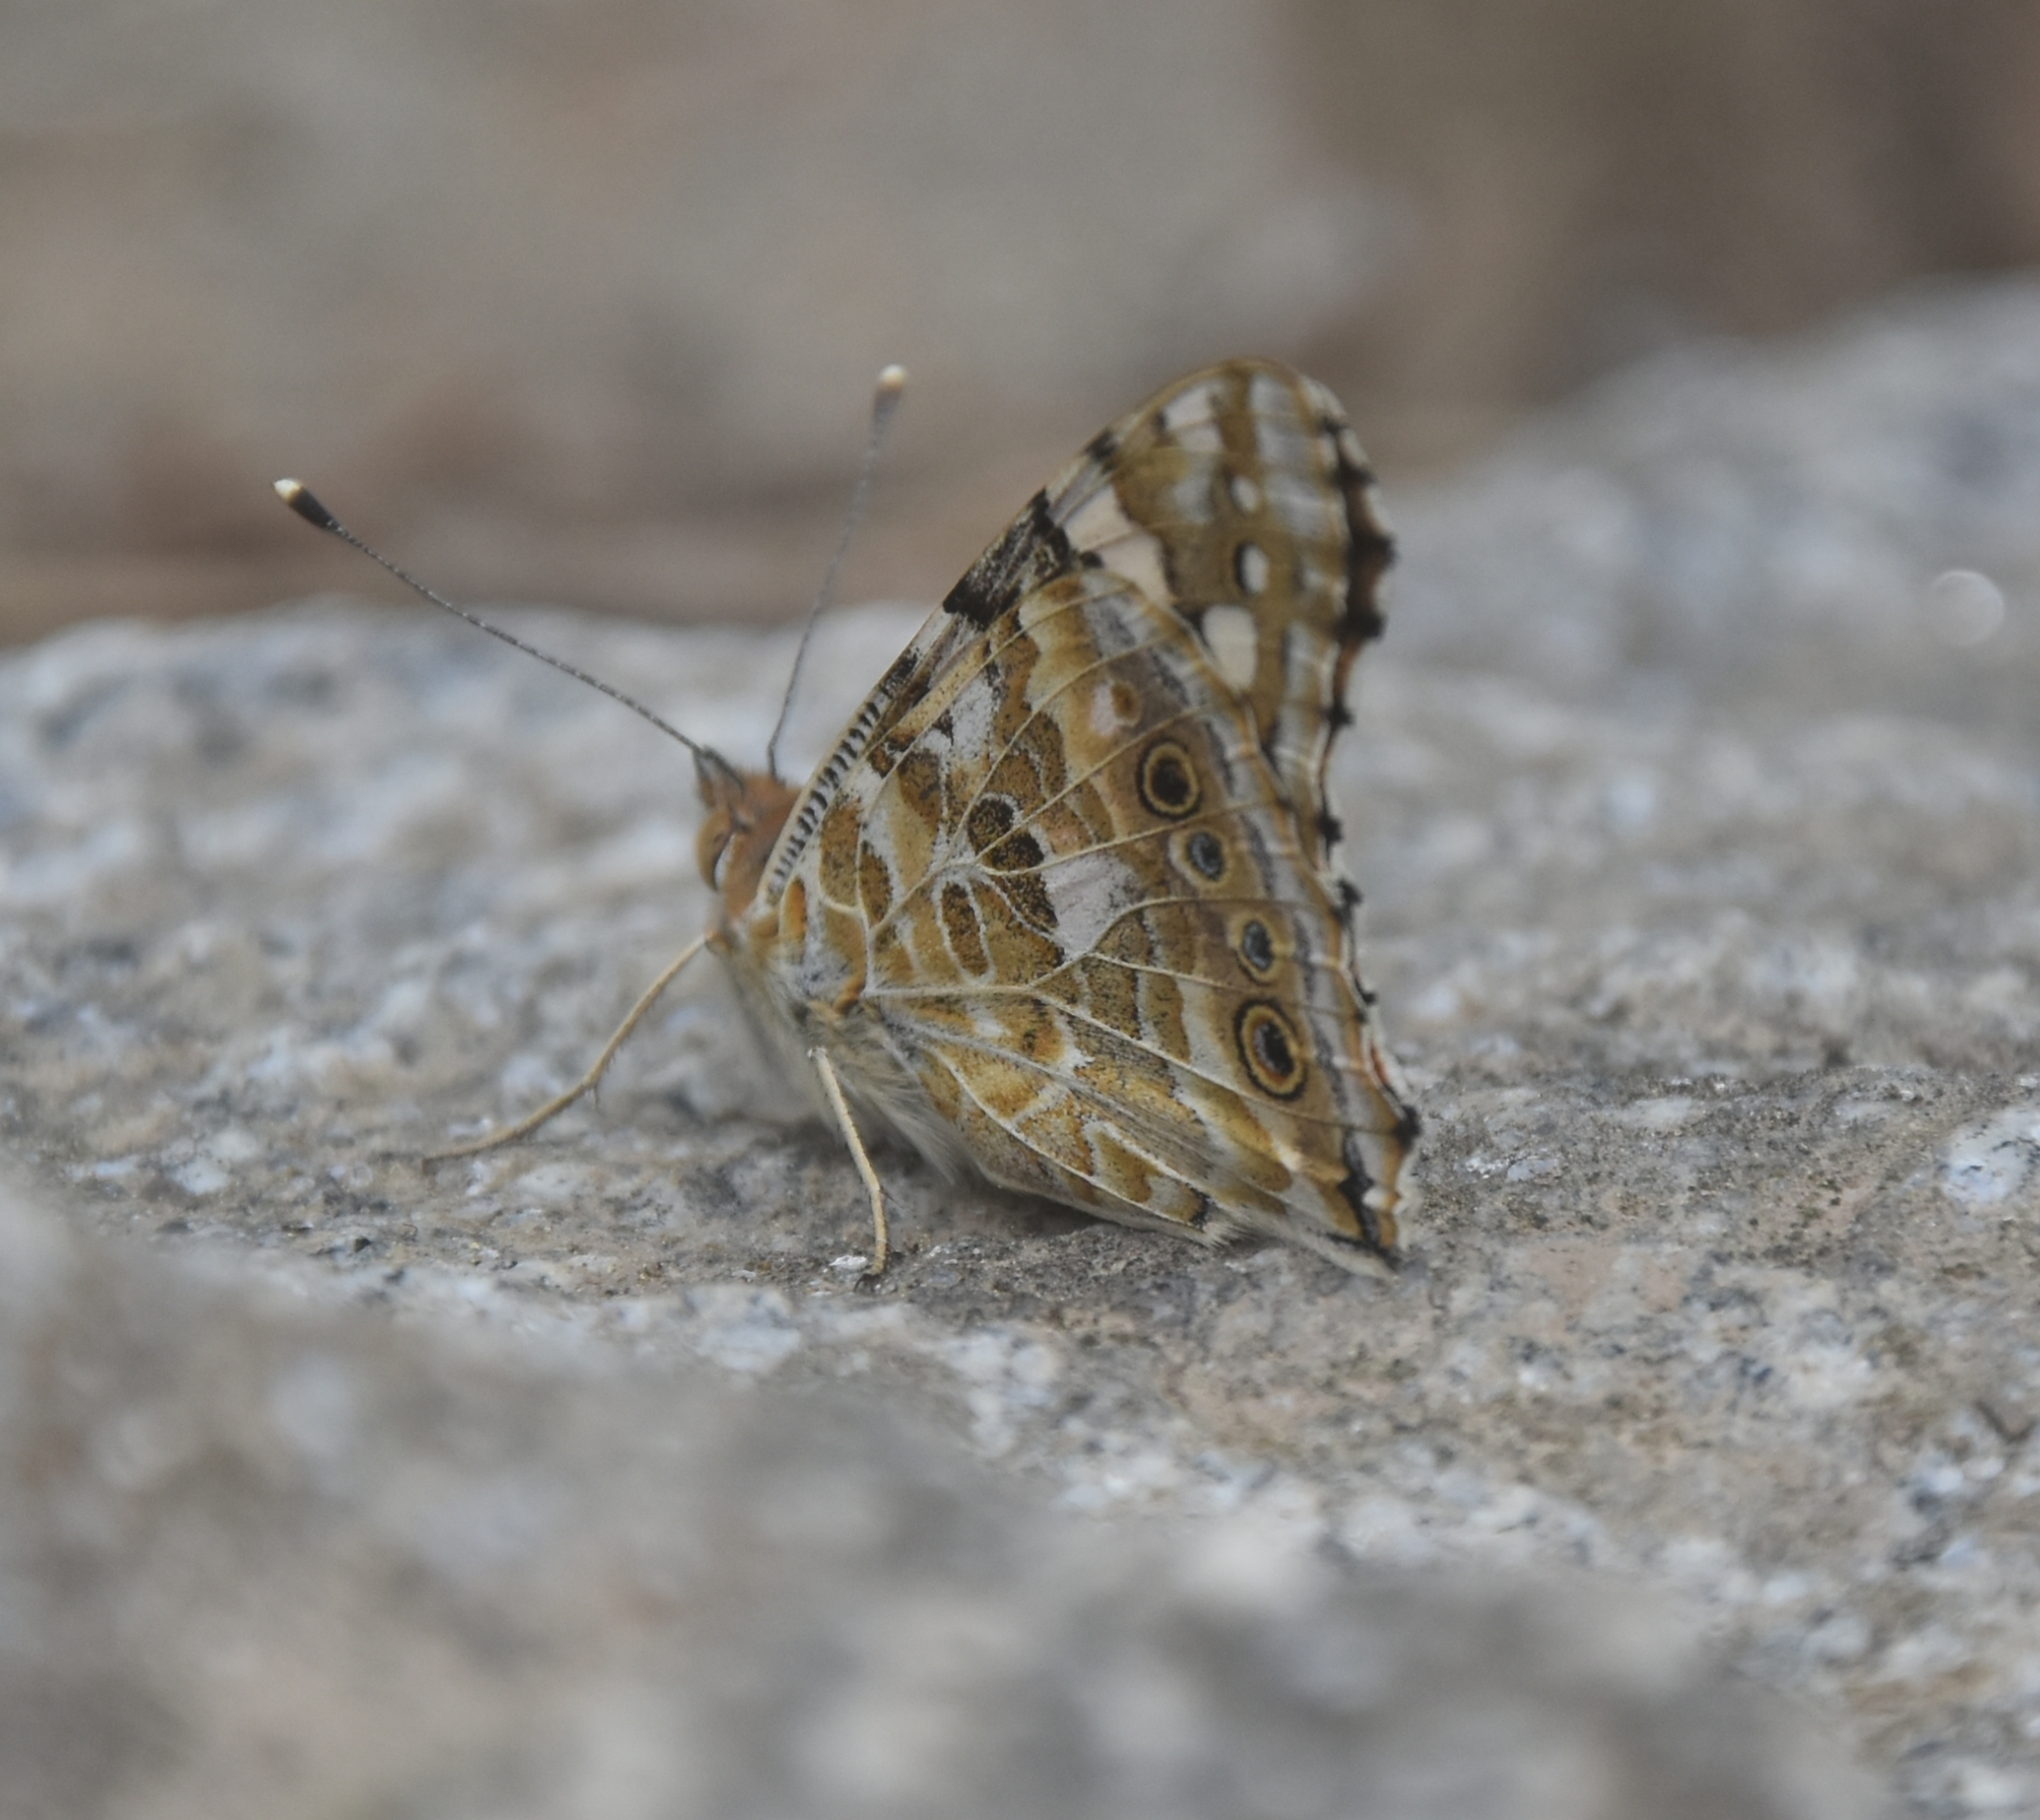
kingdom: Animalia
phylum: Arthropoda
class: Insecta
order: Lepidoptera
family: Nymphalidae
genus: Vanessa
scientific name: Vanessa cardui
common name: Painted lady
